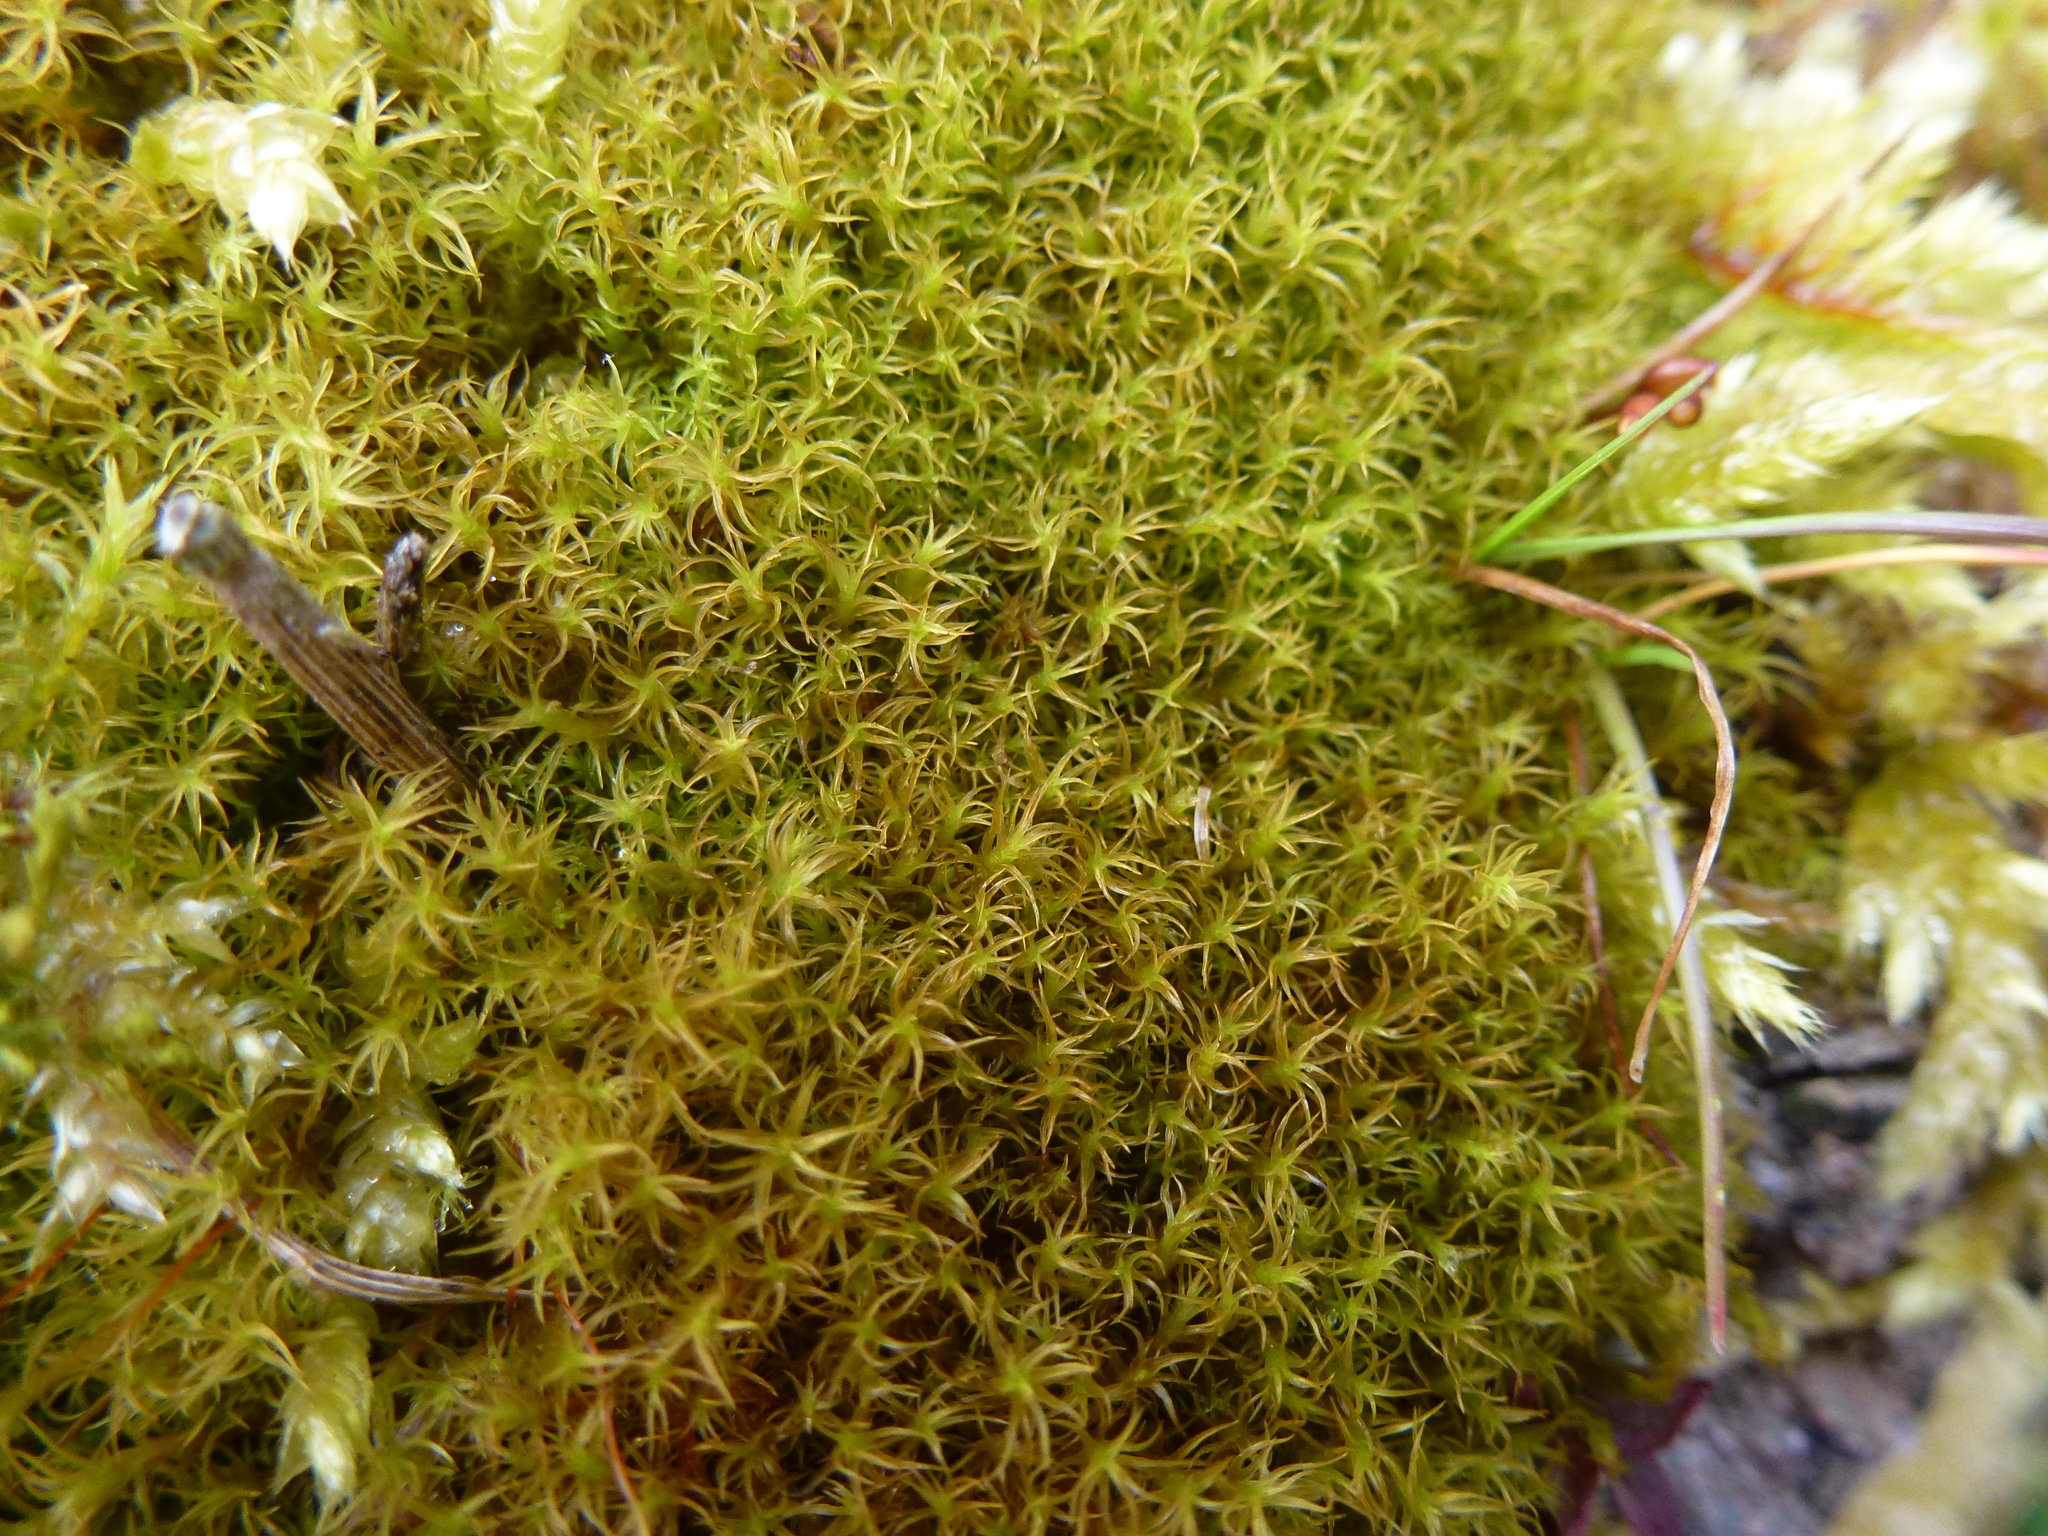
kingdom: Plantae
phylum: Bryophyta
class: Bryopsida
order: Pottiales
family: Pottiaceae
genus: Vinealobryum
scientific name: Vinealobryum insulanum
